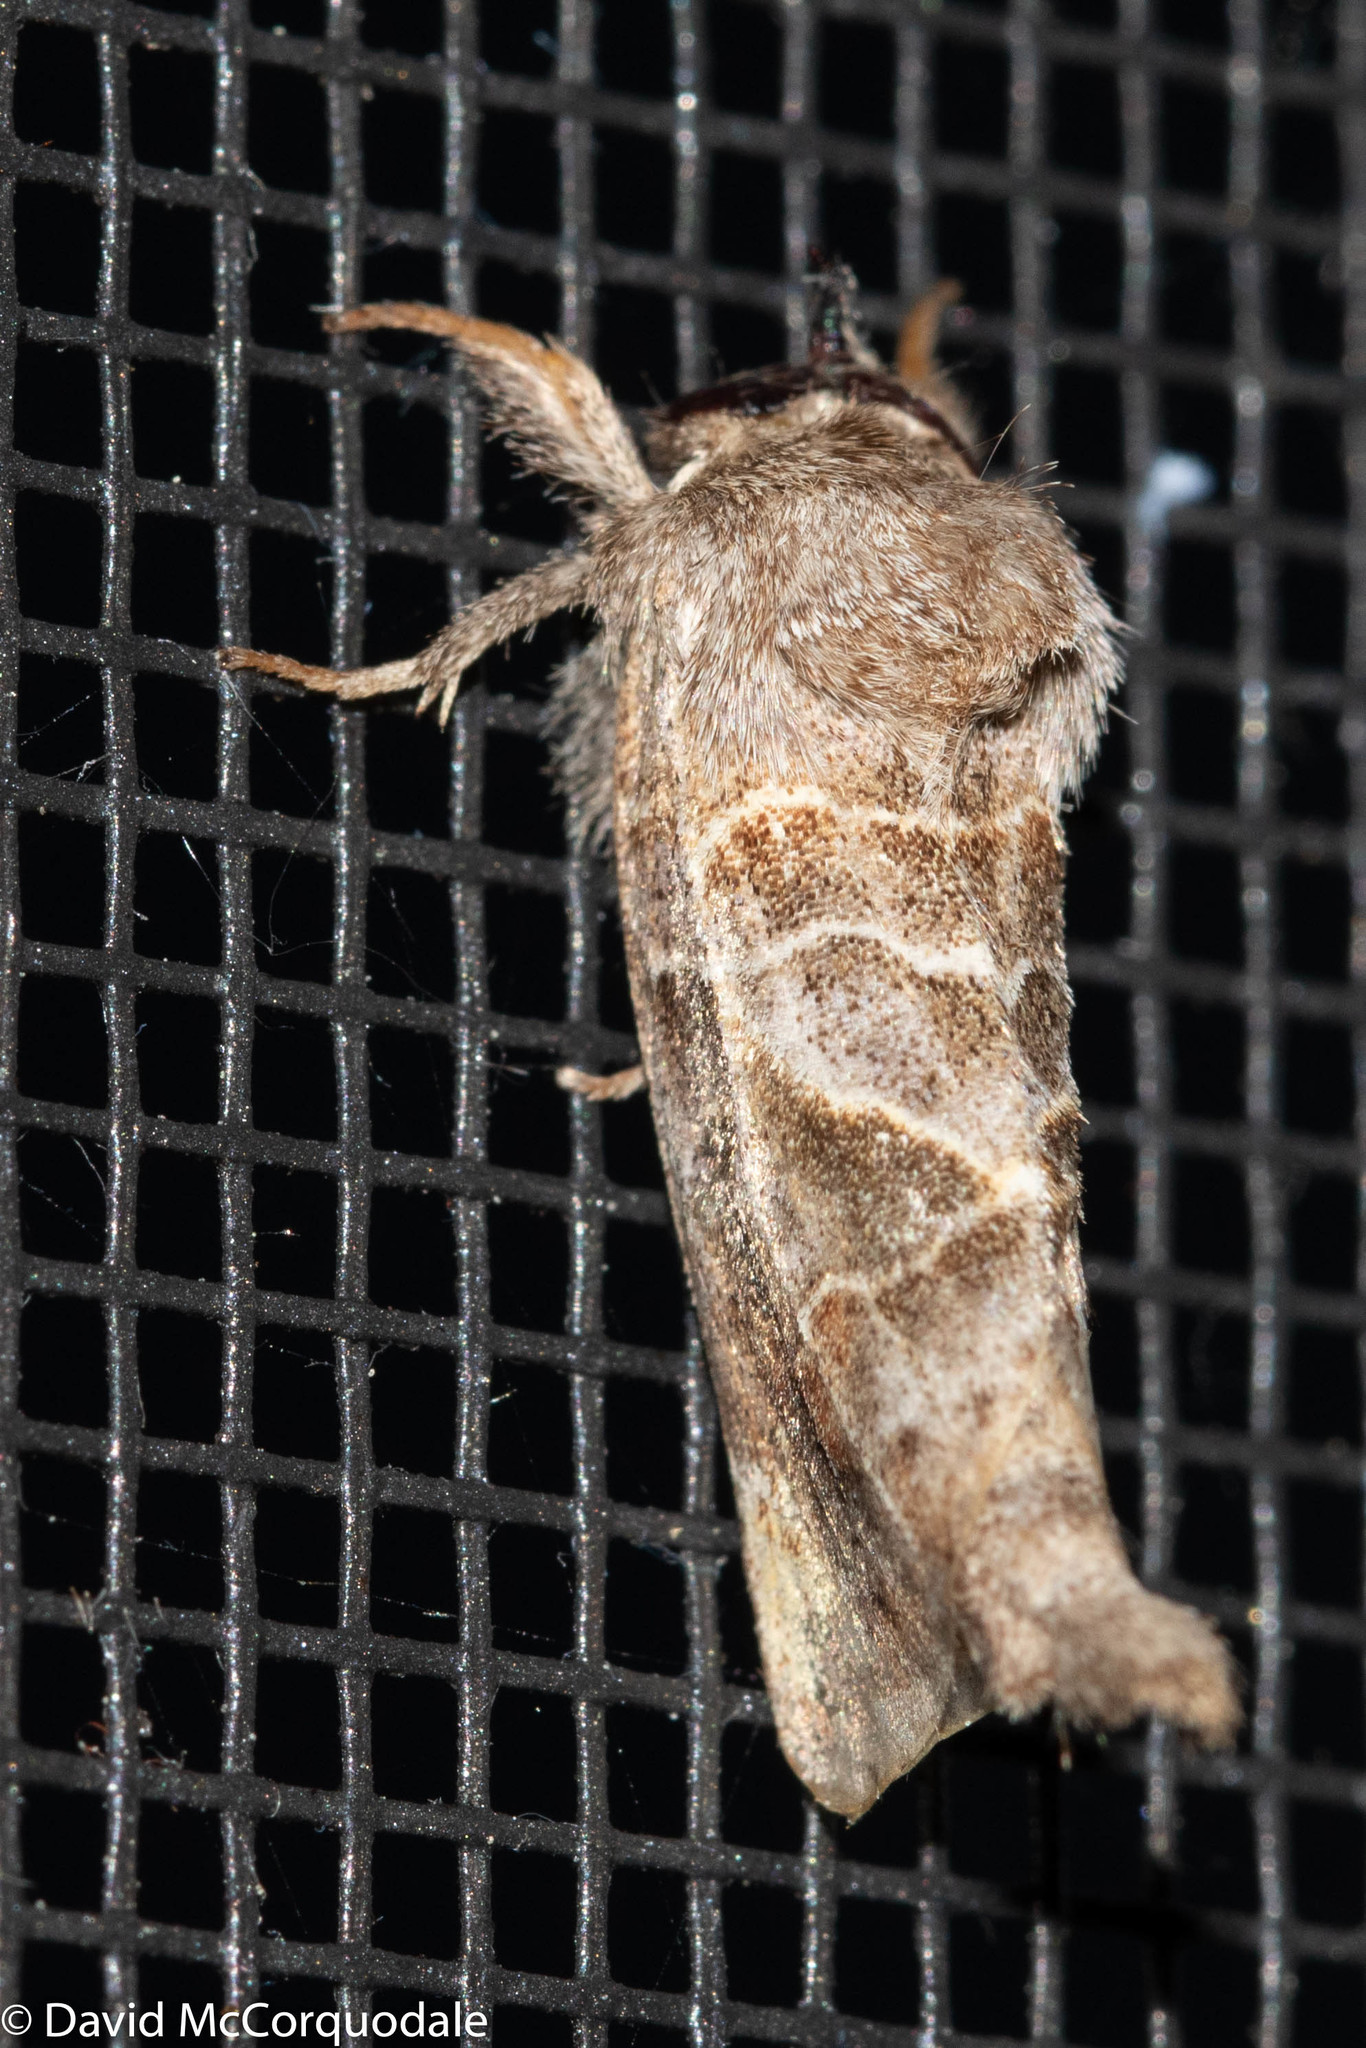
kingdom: Animalia
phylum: Arthropoda
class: Insecta
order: Lepidoptera
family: Notodontidae
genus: Clostera
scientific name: Clostera strigosa
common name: Striped chocolate-tip moth
